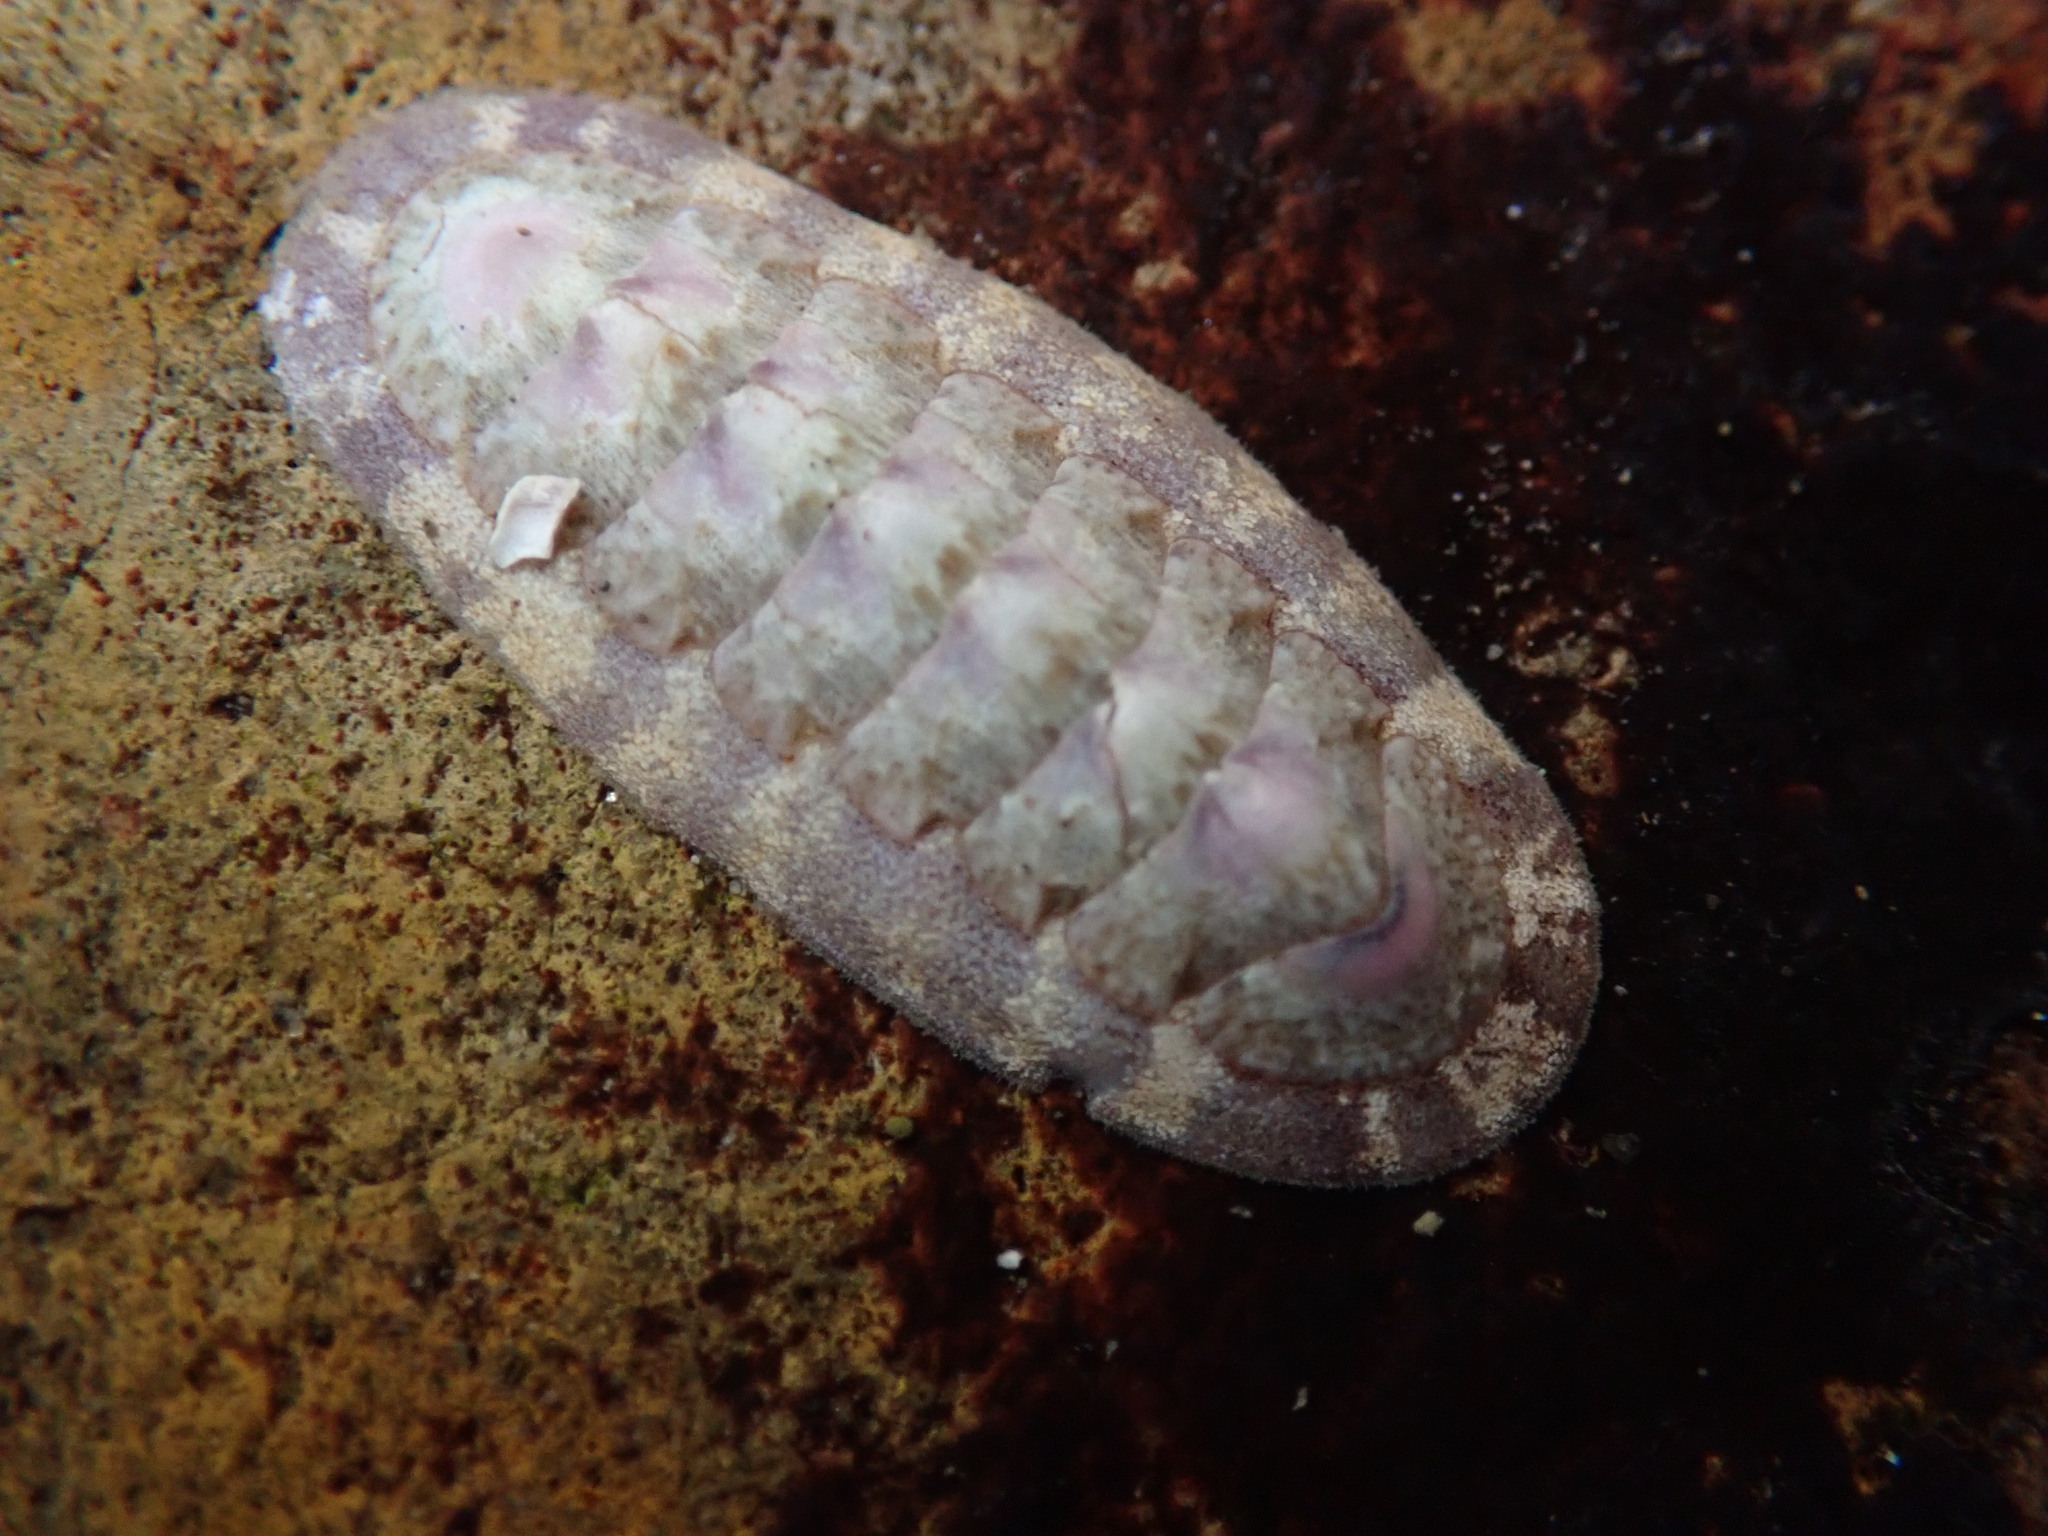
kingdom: Animalia
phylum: Mollusca
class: Polyplacophora
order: Chitonida
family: Ischnochitonidae
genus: Stenoplax
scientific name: Stenoplax heathiana
